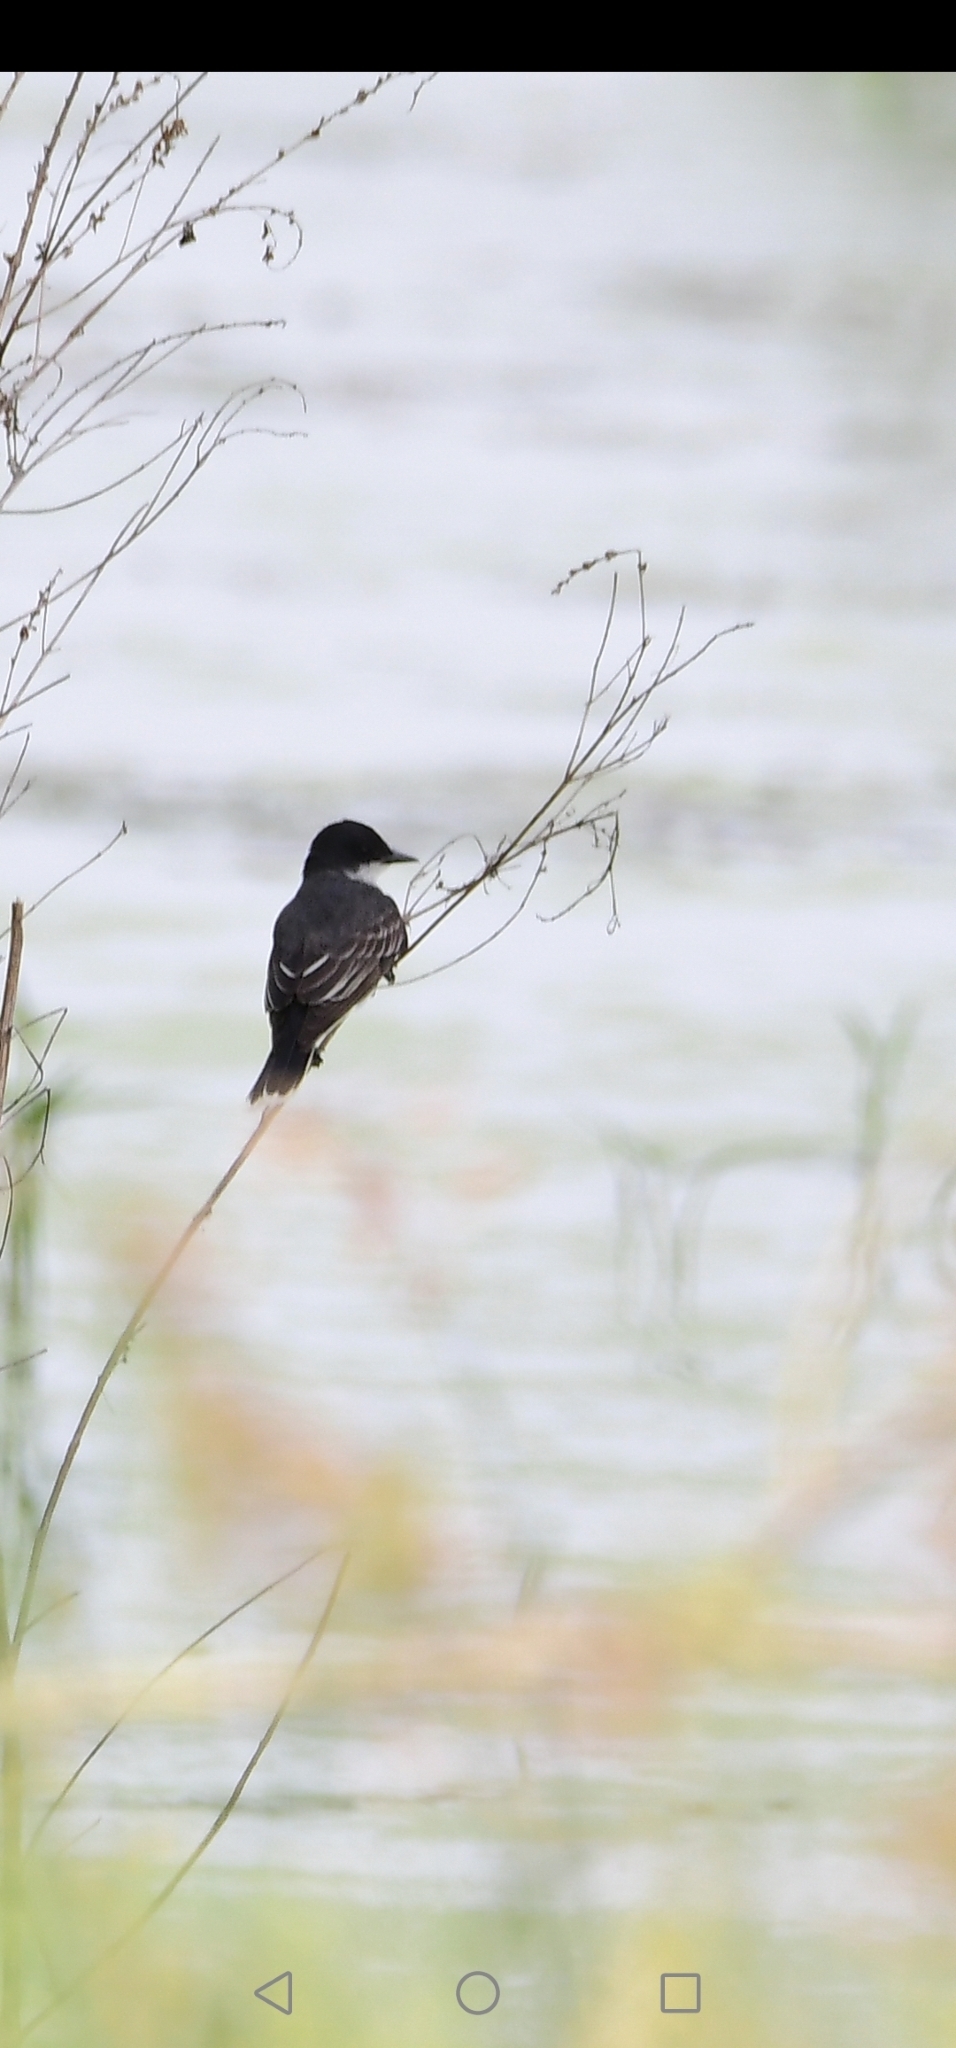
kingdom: Animalia
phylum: Chordata
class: Aves
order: Passeriformes
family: Tyrannidae
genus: Tyrannus
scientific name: Tyrannus tyrannus
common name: Eastern kingbird
